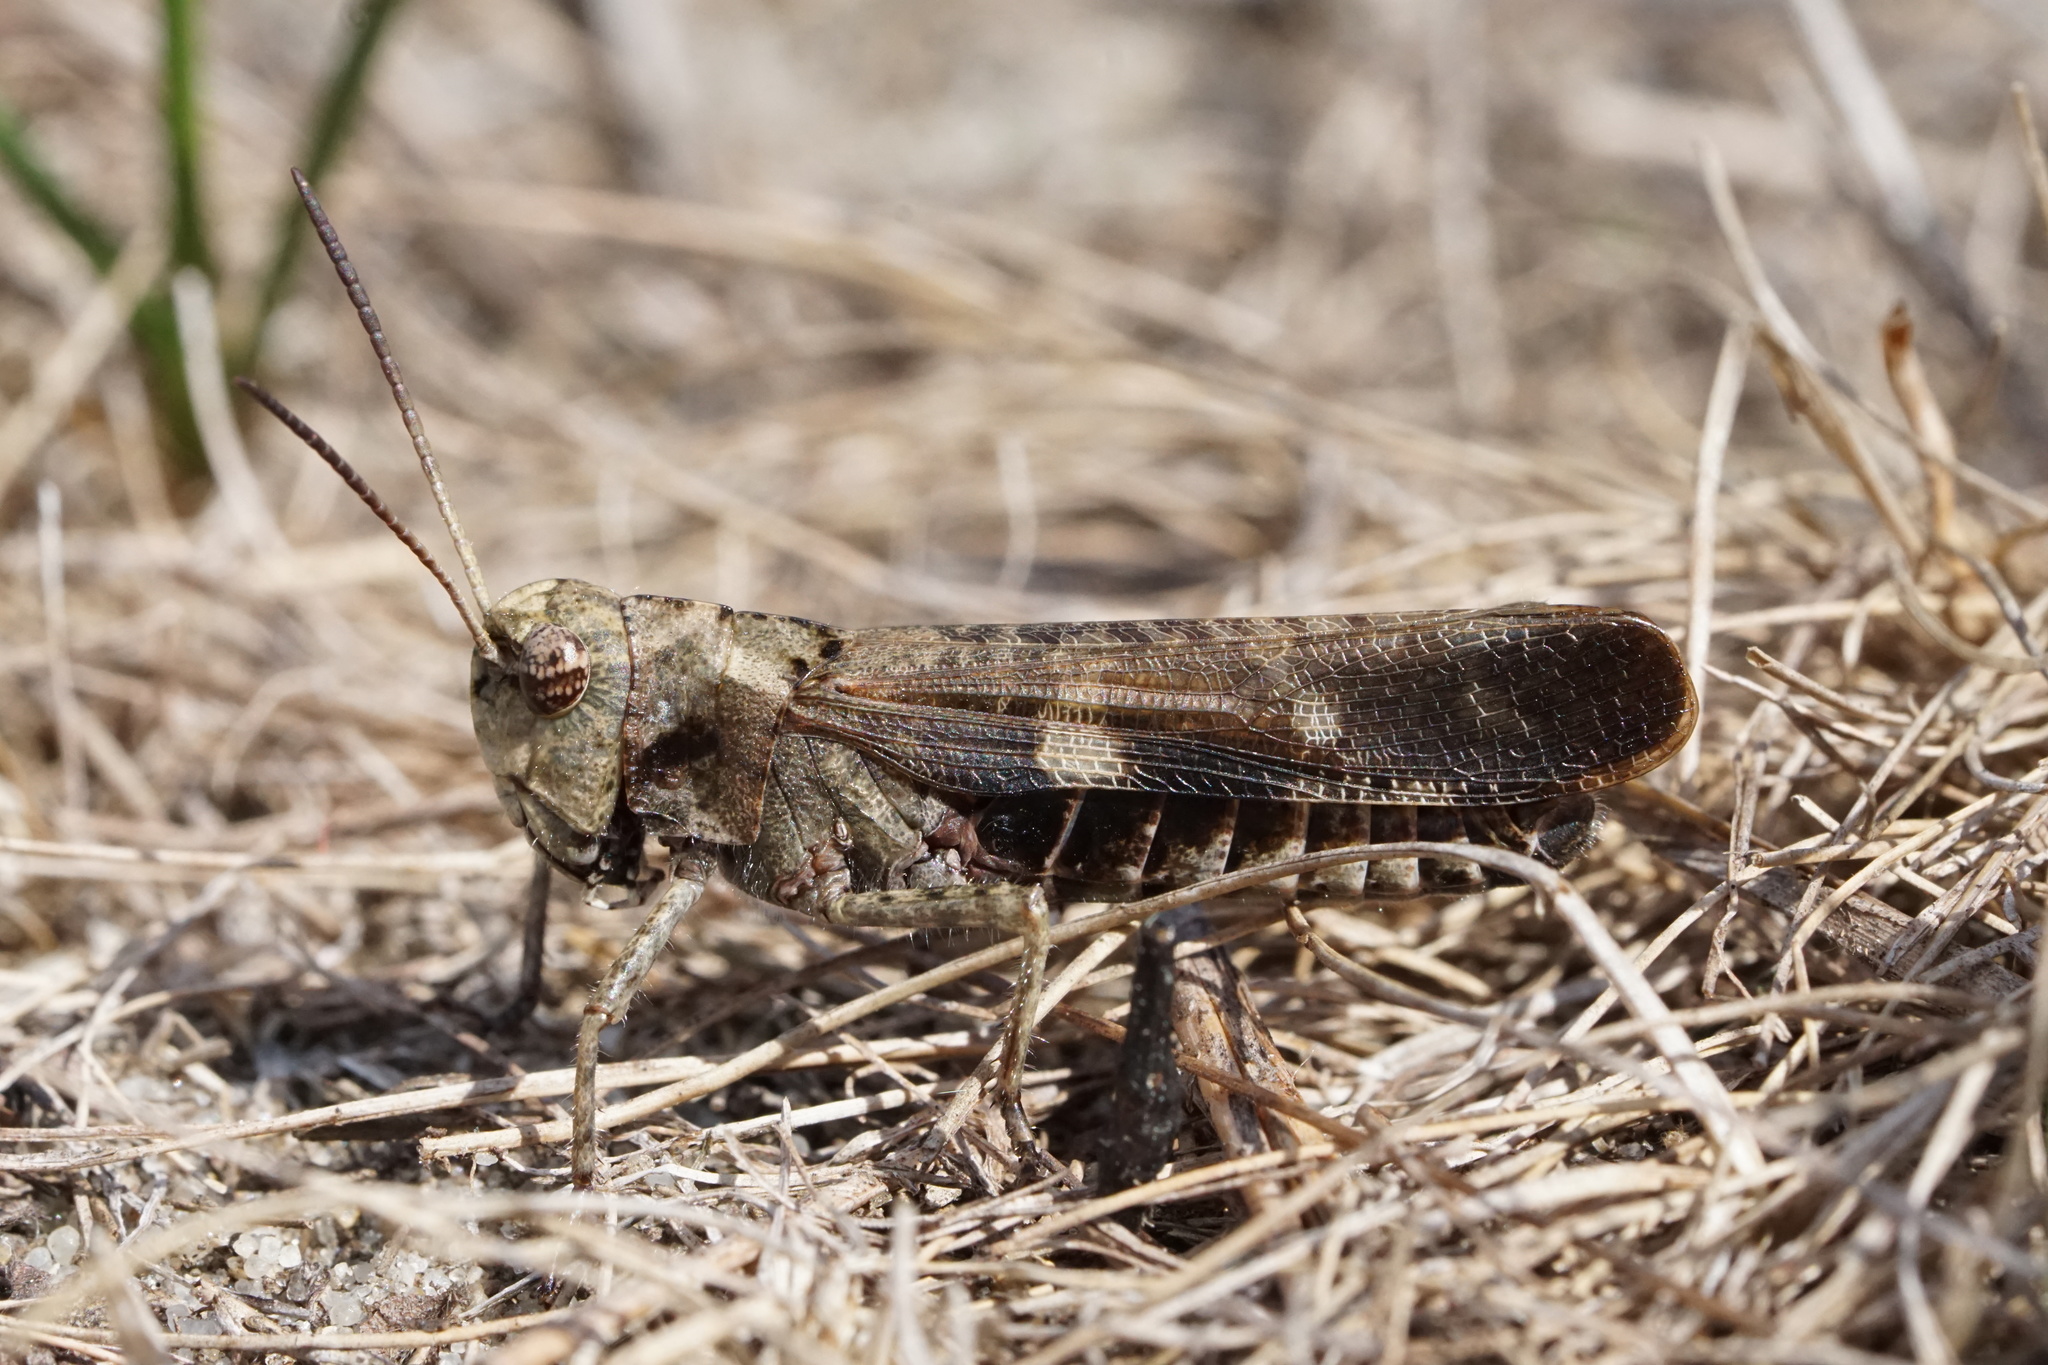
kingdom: Animalia
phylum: Arthropoda
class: Insecta
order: Orthoptera
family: Acrididae
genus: Encoptolophus
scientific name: Encoptolophus sordidus
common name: Dusky grasshopper
